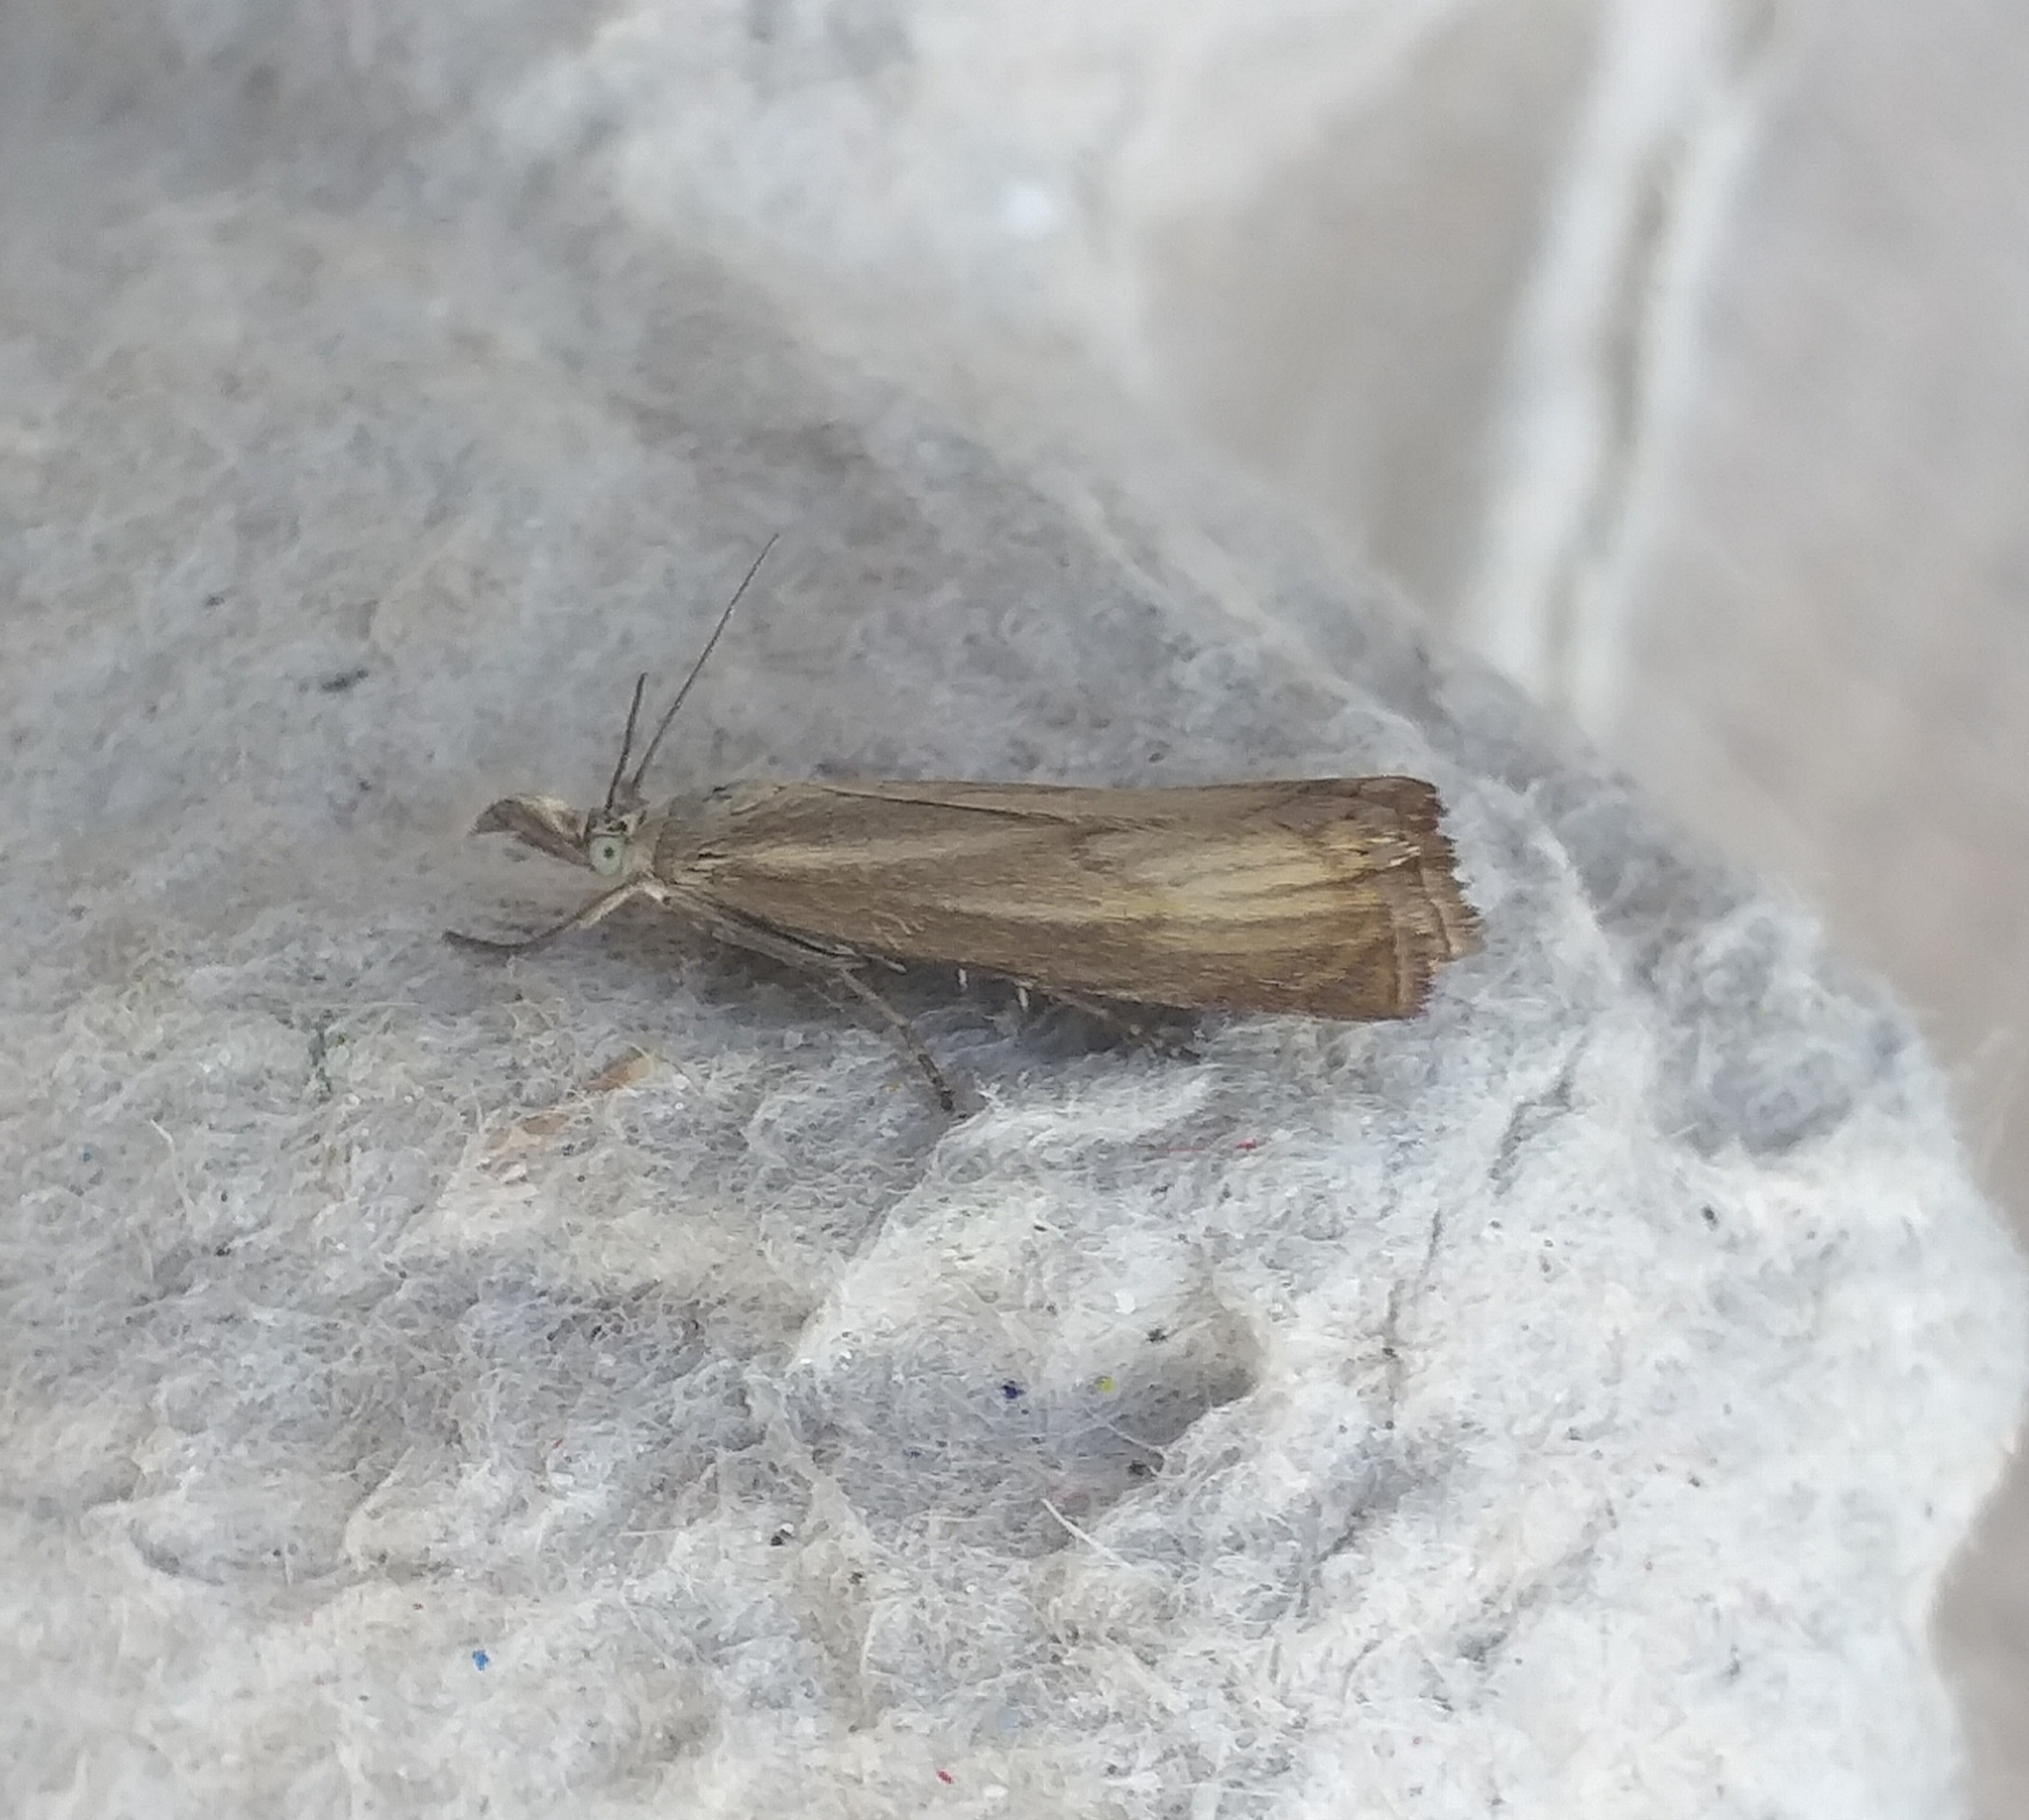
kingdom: Animalia
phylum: Arthropoda
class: Insecta
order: Lepidoptera
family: Crambidae
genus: Chrysoteuchia
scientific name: Chrysoteuchia culmella
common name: Garden grass-veneer
